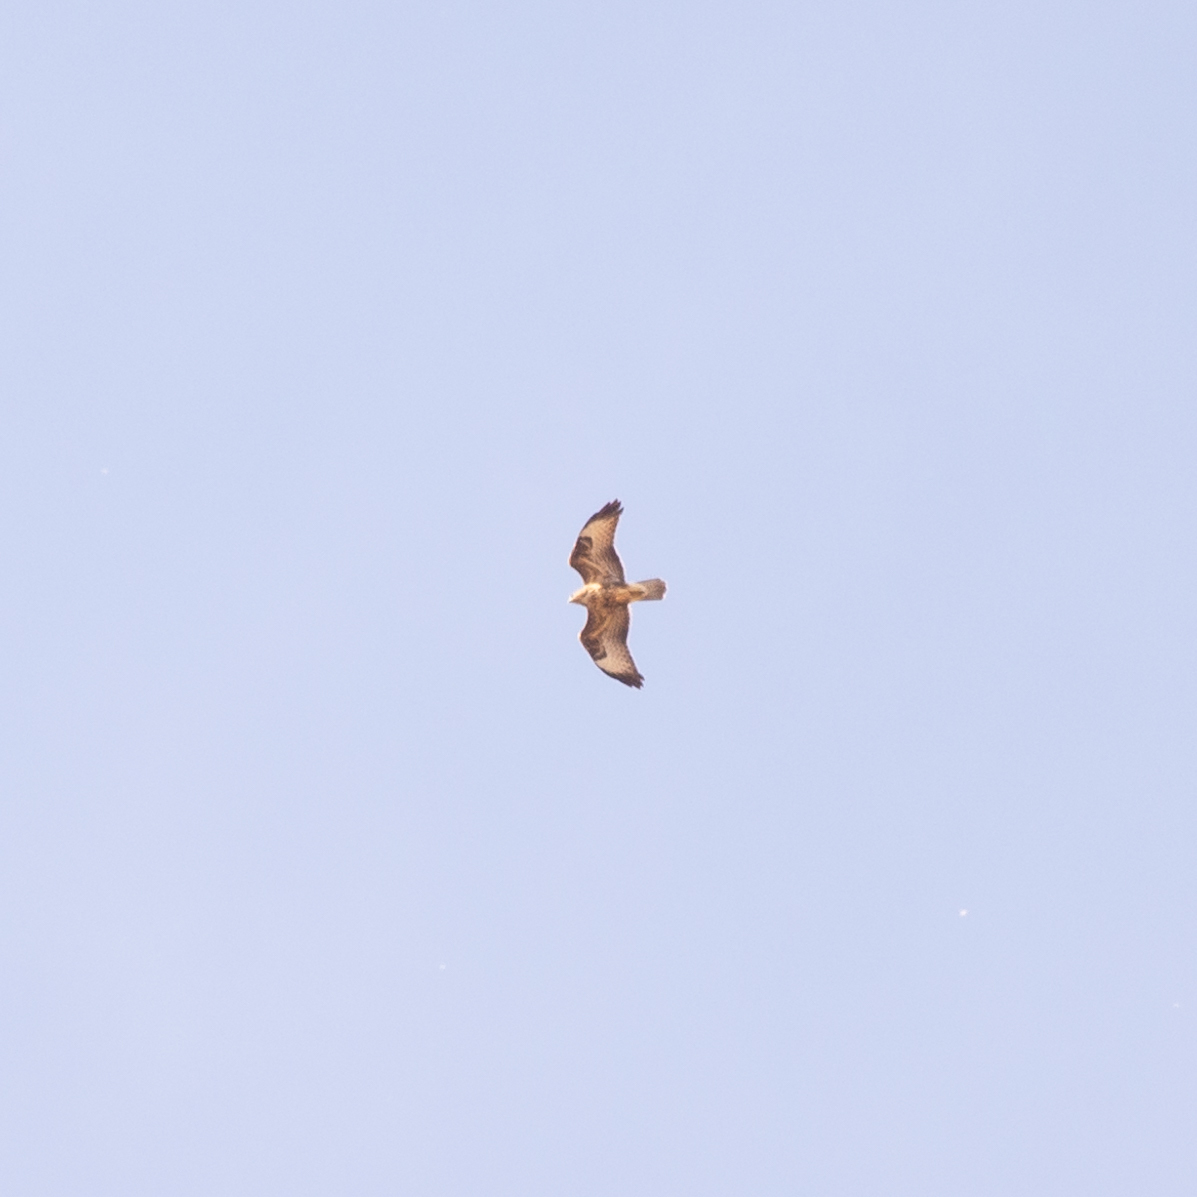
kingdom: Animalia
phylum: Chordata
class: Aves
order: Accipitriformes
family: Accipitridae
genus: Buteo
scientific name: Buteo buteo
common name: Common buzzard
